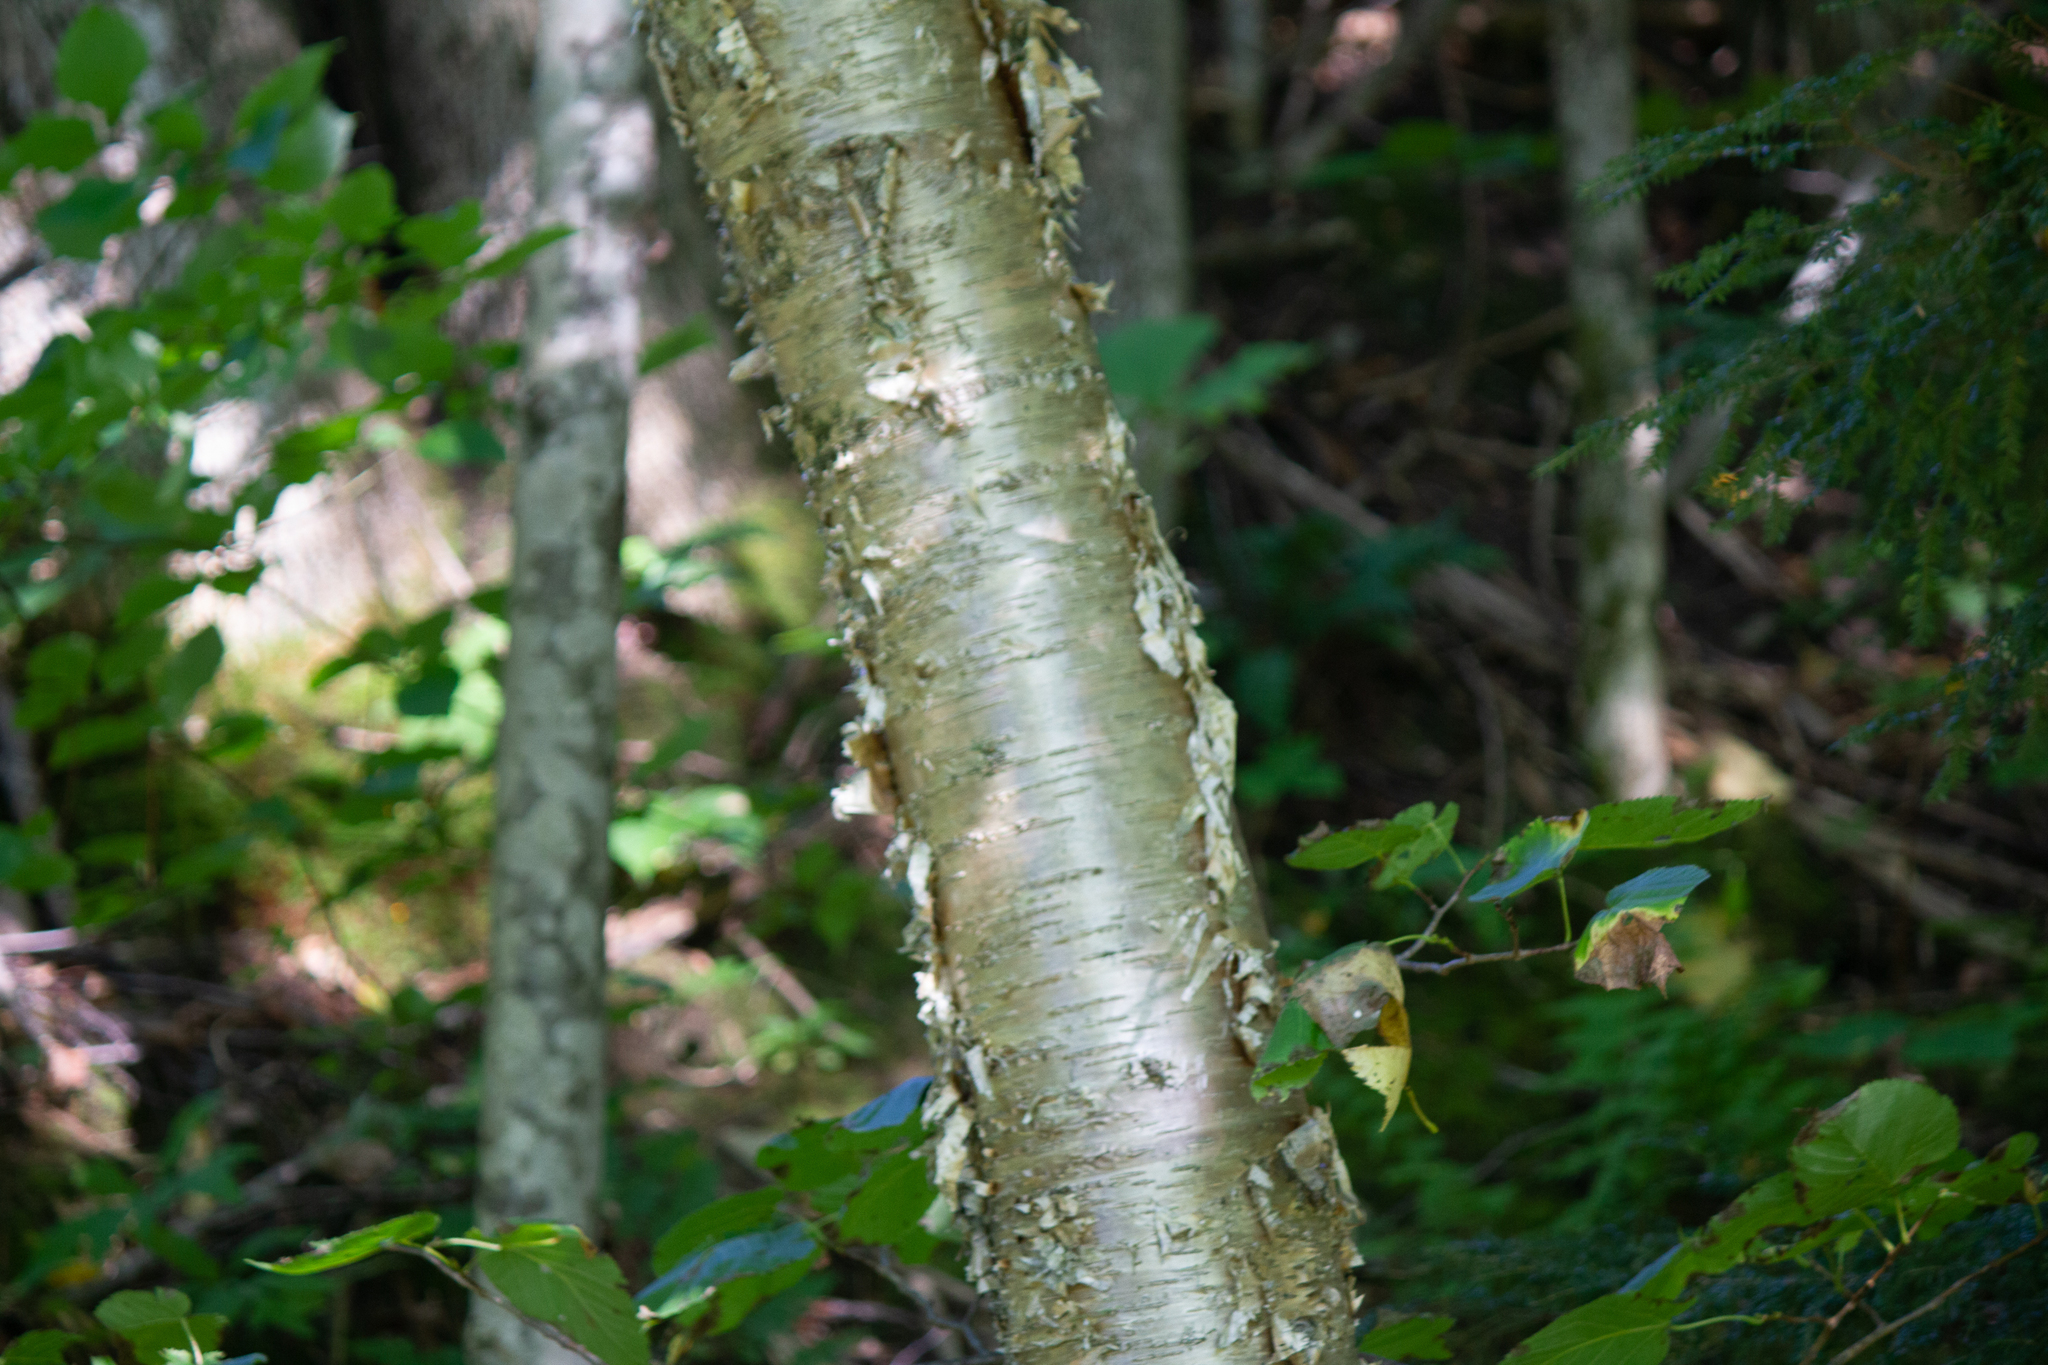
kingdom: Plantae
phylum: Tracheophyta
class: Magnoliopsida
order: Fagales
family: Betulaceae
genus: Betula
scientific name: Betula alleghaniensis
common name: Yellow birch
